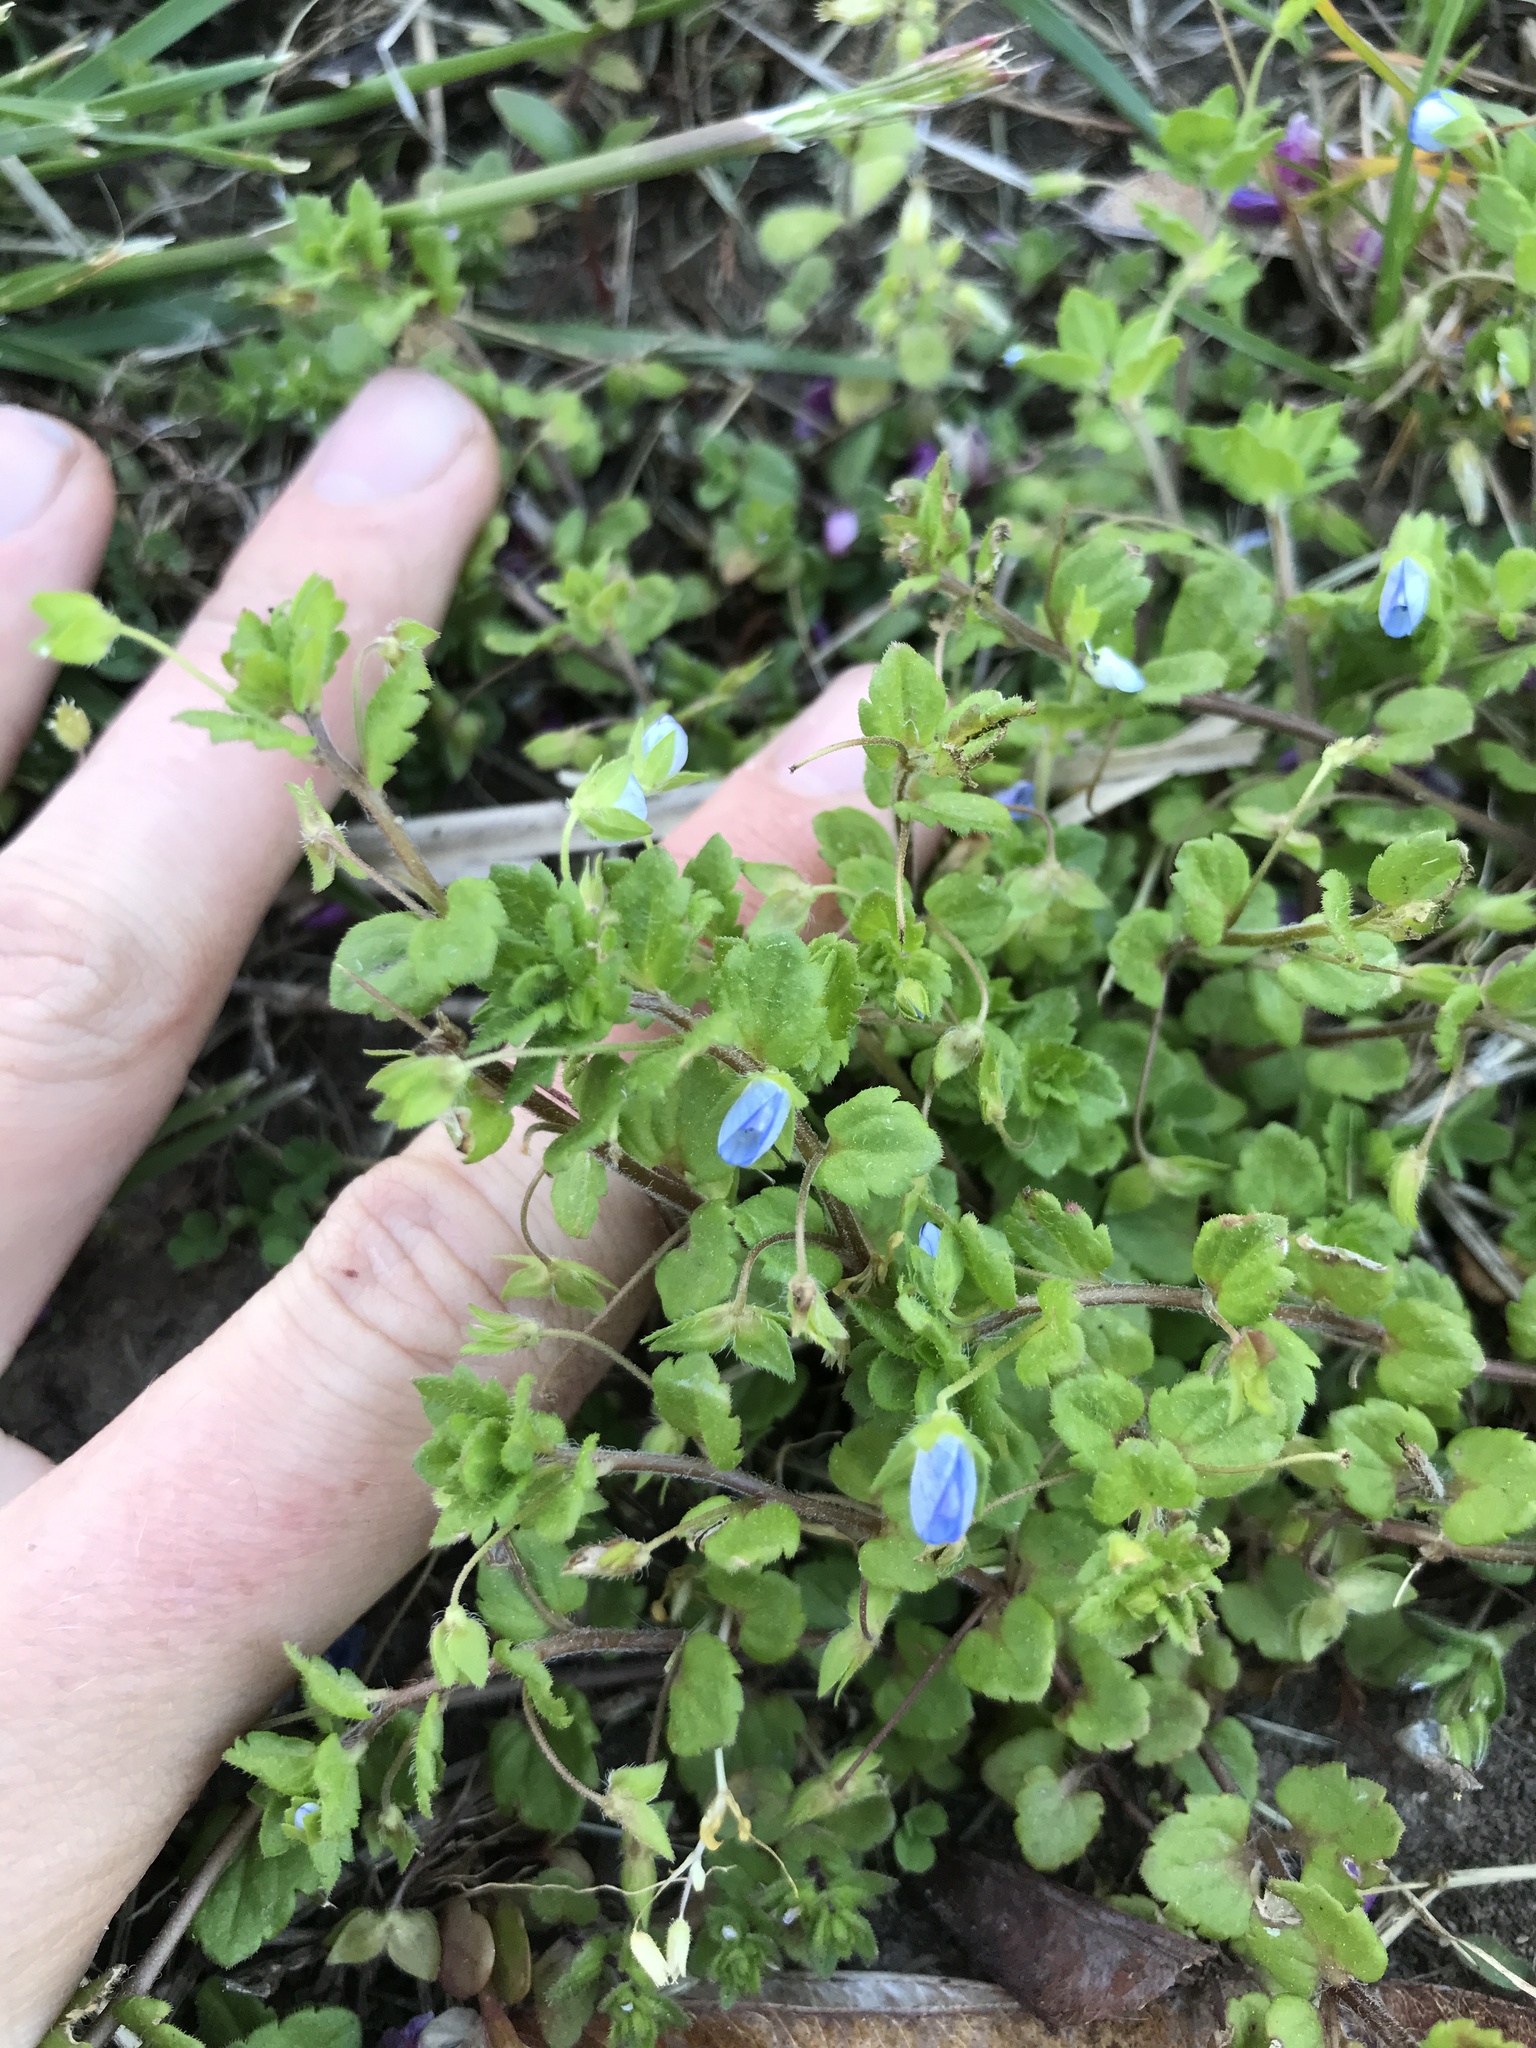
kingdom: Plantae
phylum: Tracheophyta
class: Magnoliopsida
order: Lamiales
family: Plantaginaceae
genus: Veronica
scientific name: Veronica persica
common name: Common field-speedwell
